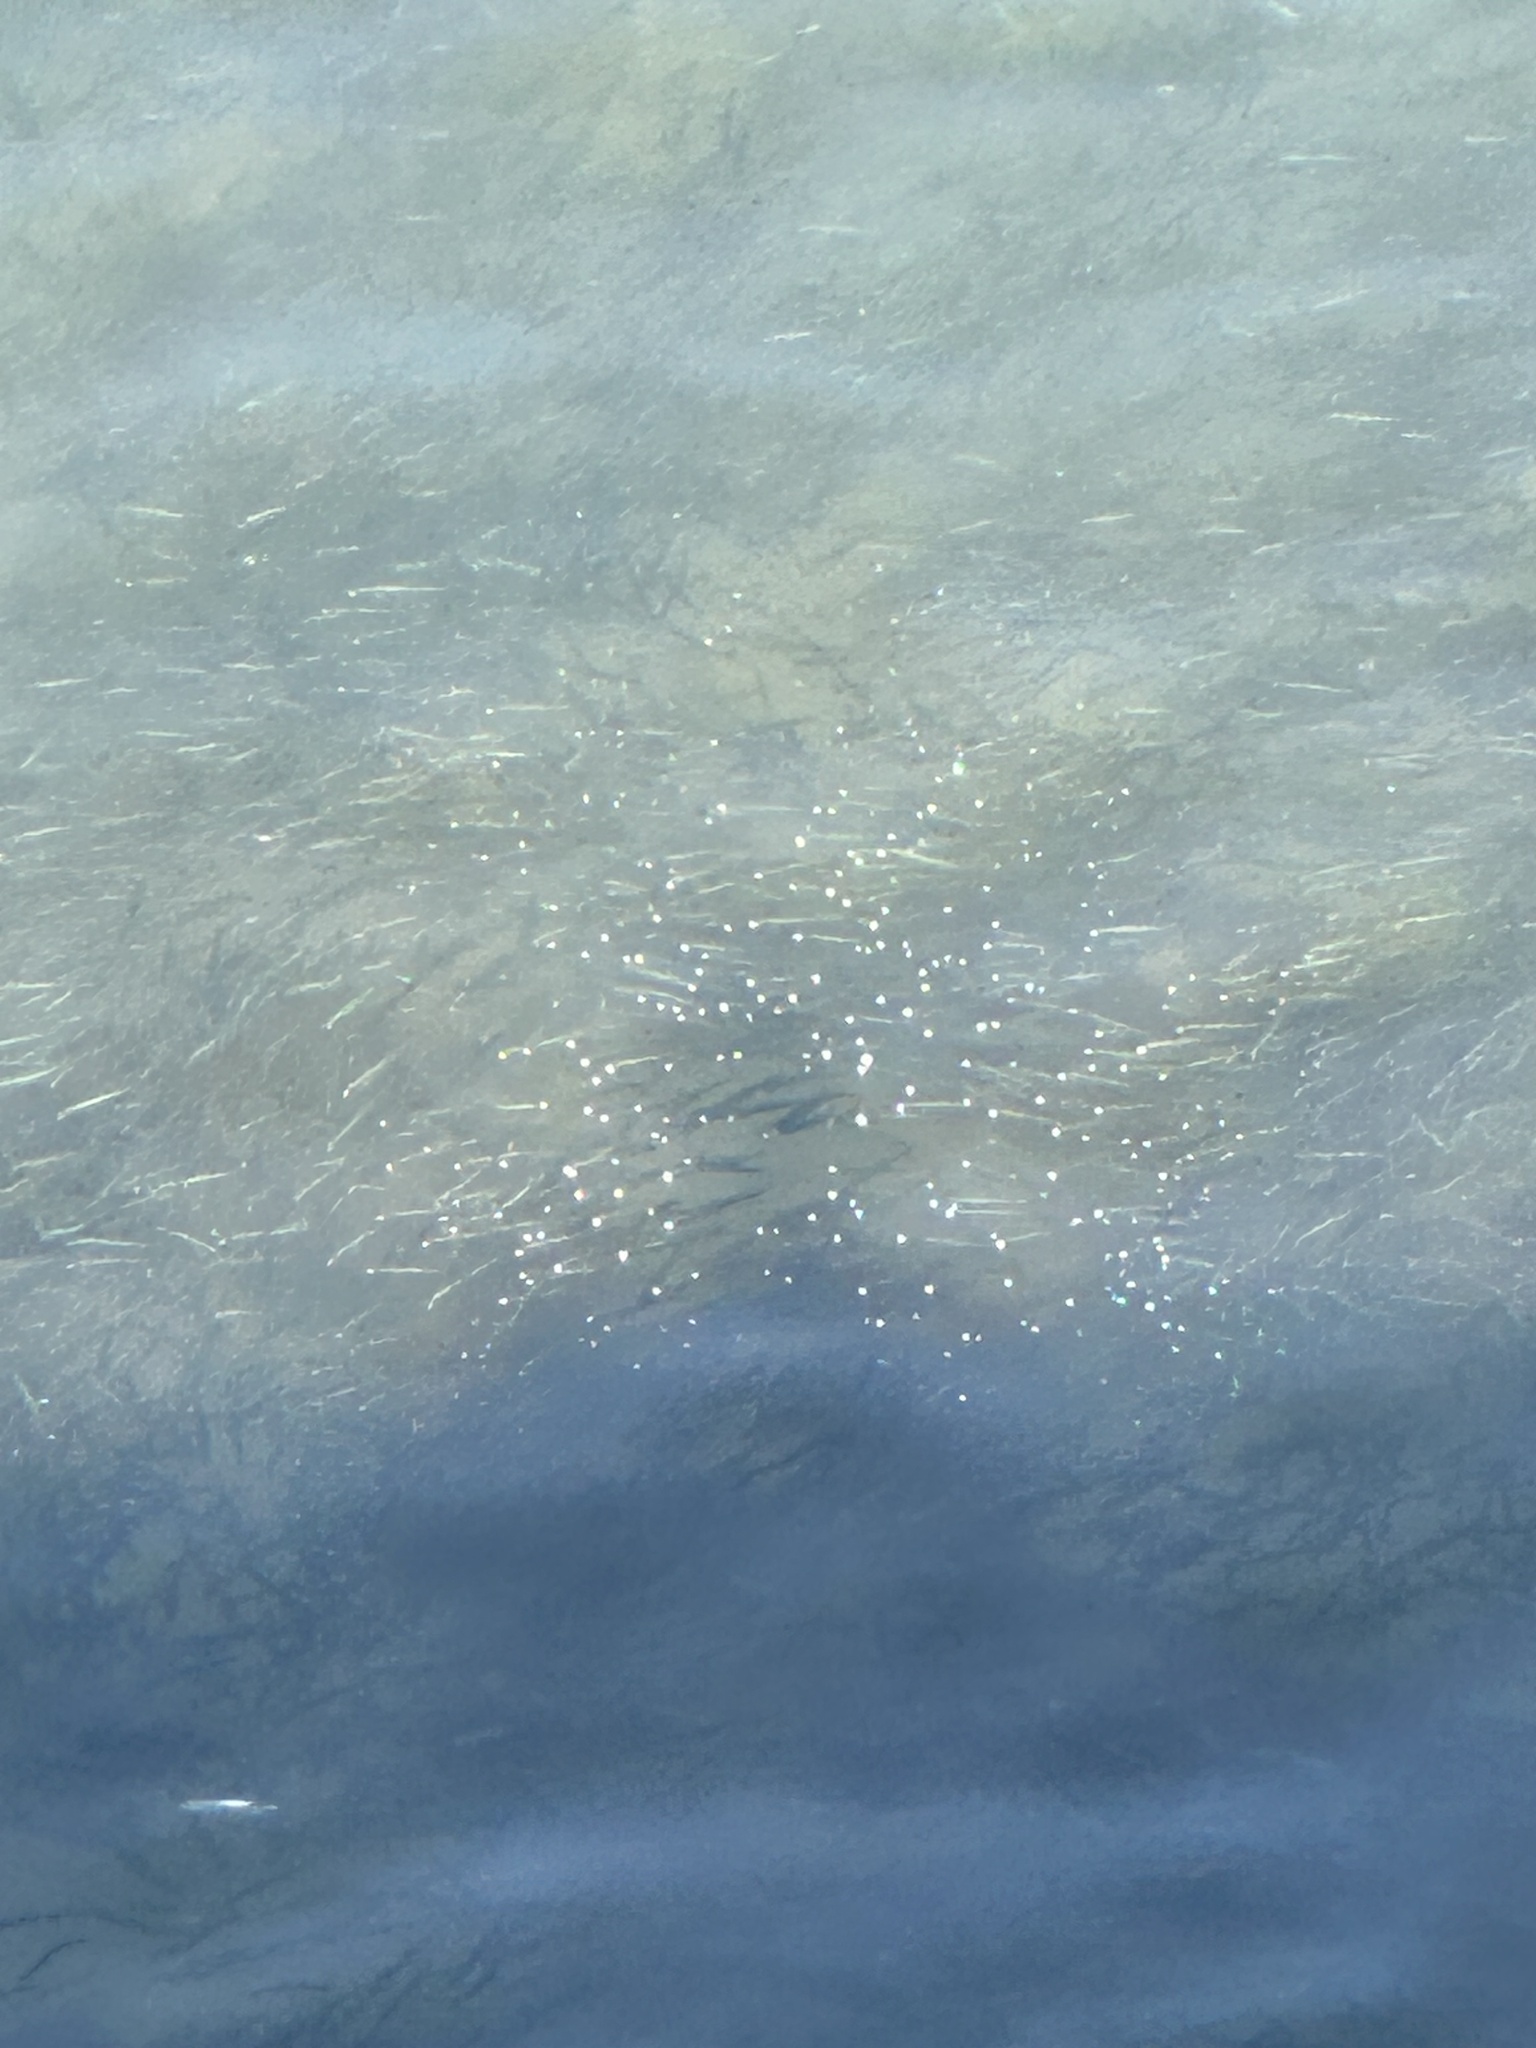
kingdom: Animalia
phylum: Chordata
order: Clupeiformes
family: Engraulidae
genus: Engraulis
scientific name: Engraulis mordax
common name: Northern anchovy
